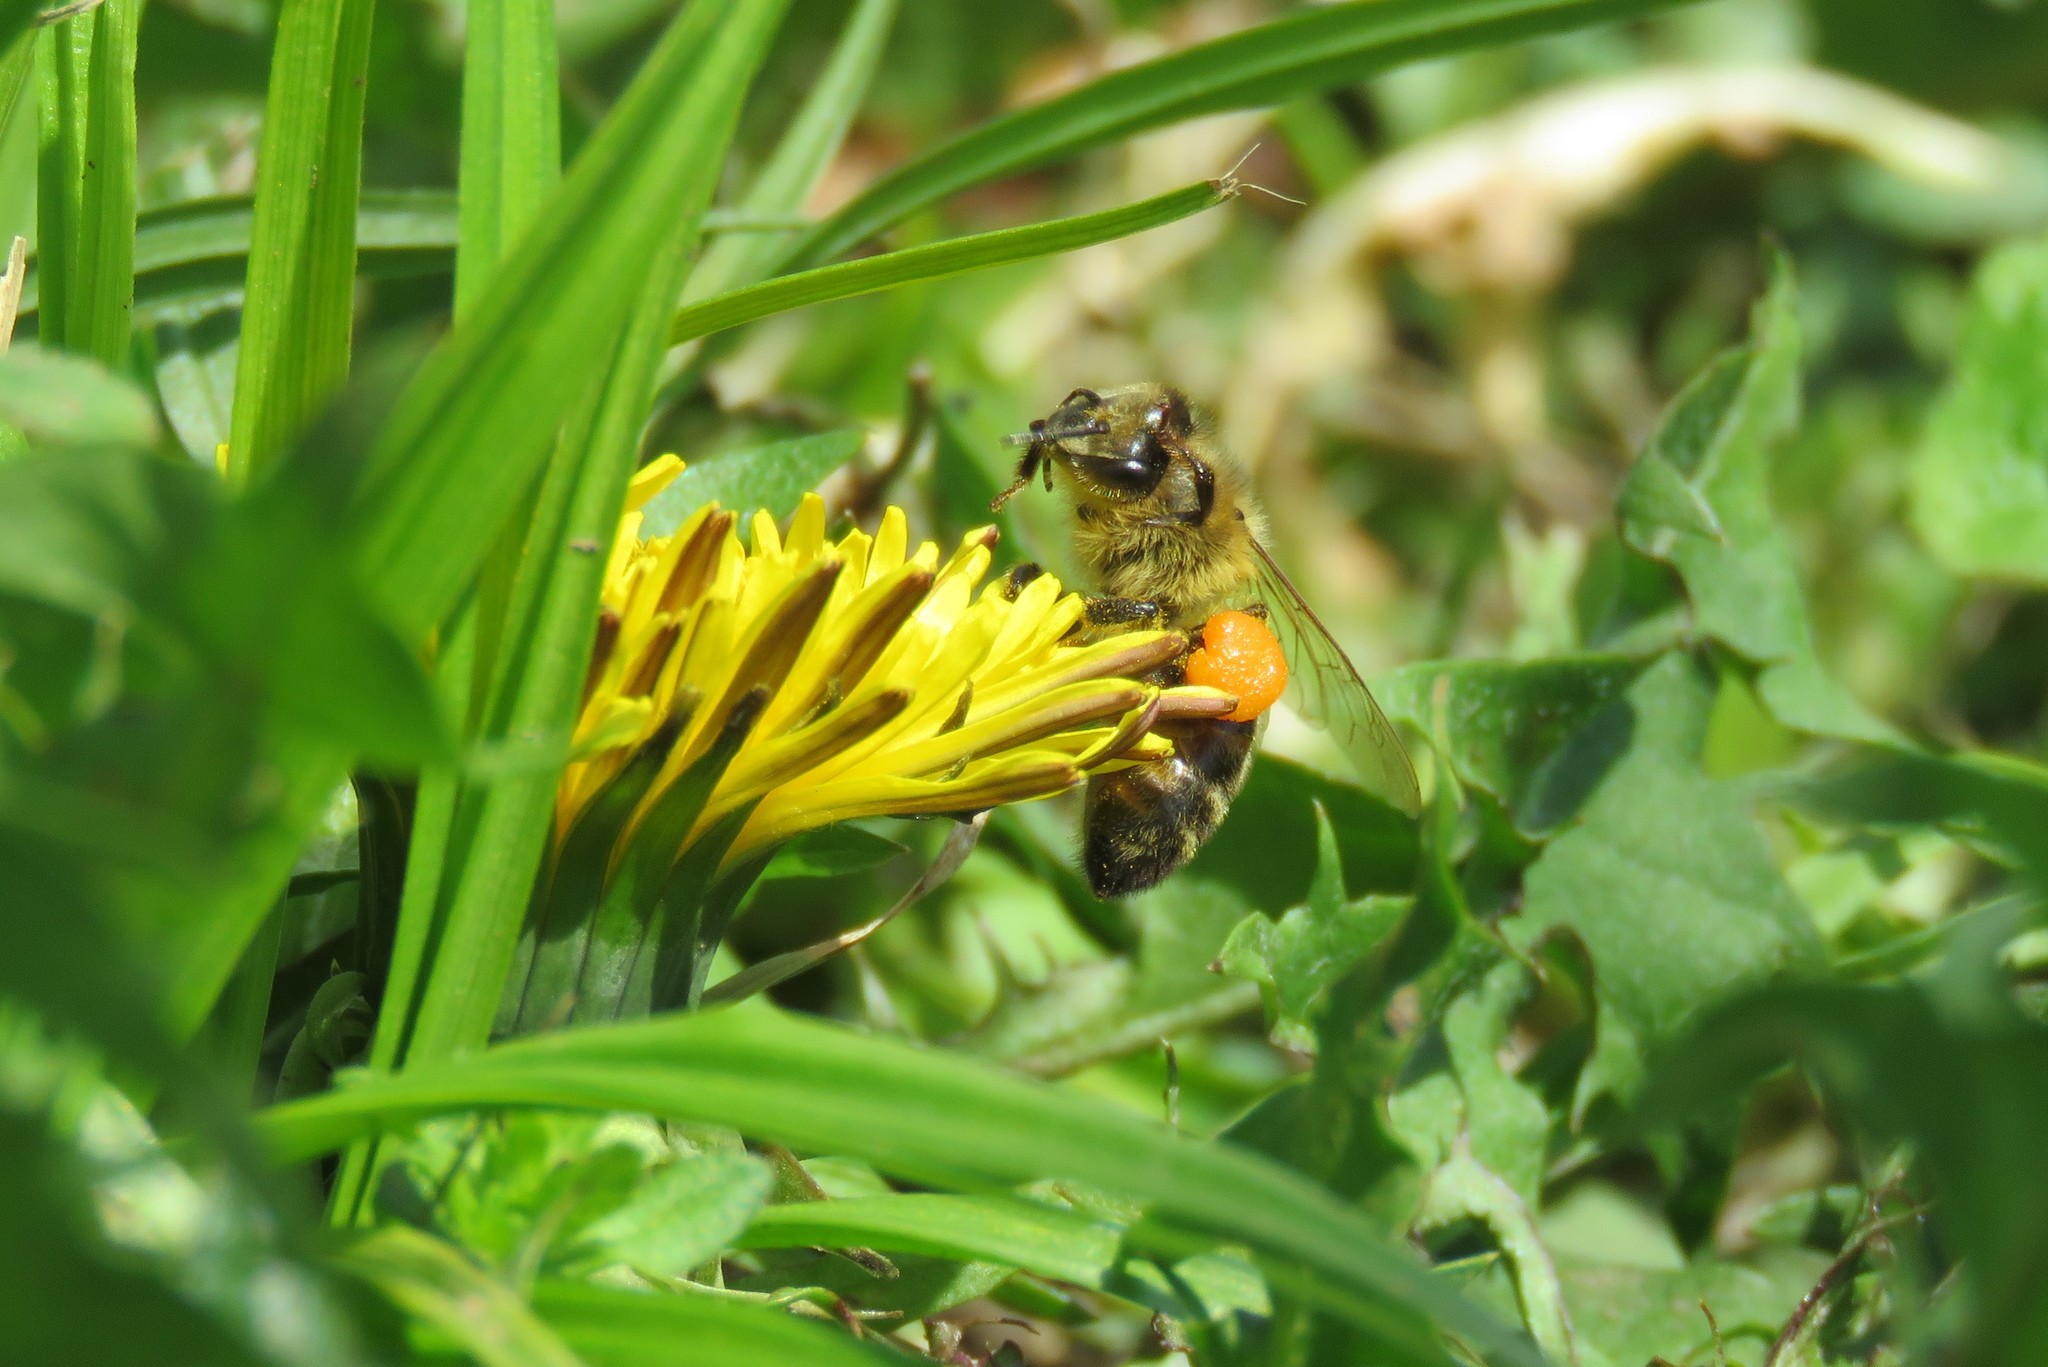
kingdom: Animalia
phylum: Arthropoda
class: Insecta
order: Hymenoptera
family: Apidae
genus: Apis
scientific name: Apis mellifera
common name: Honey bee
